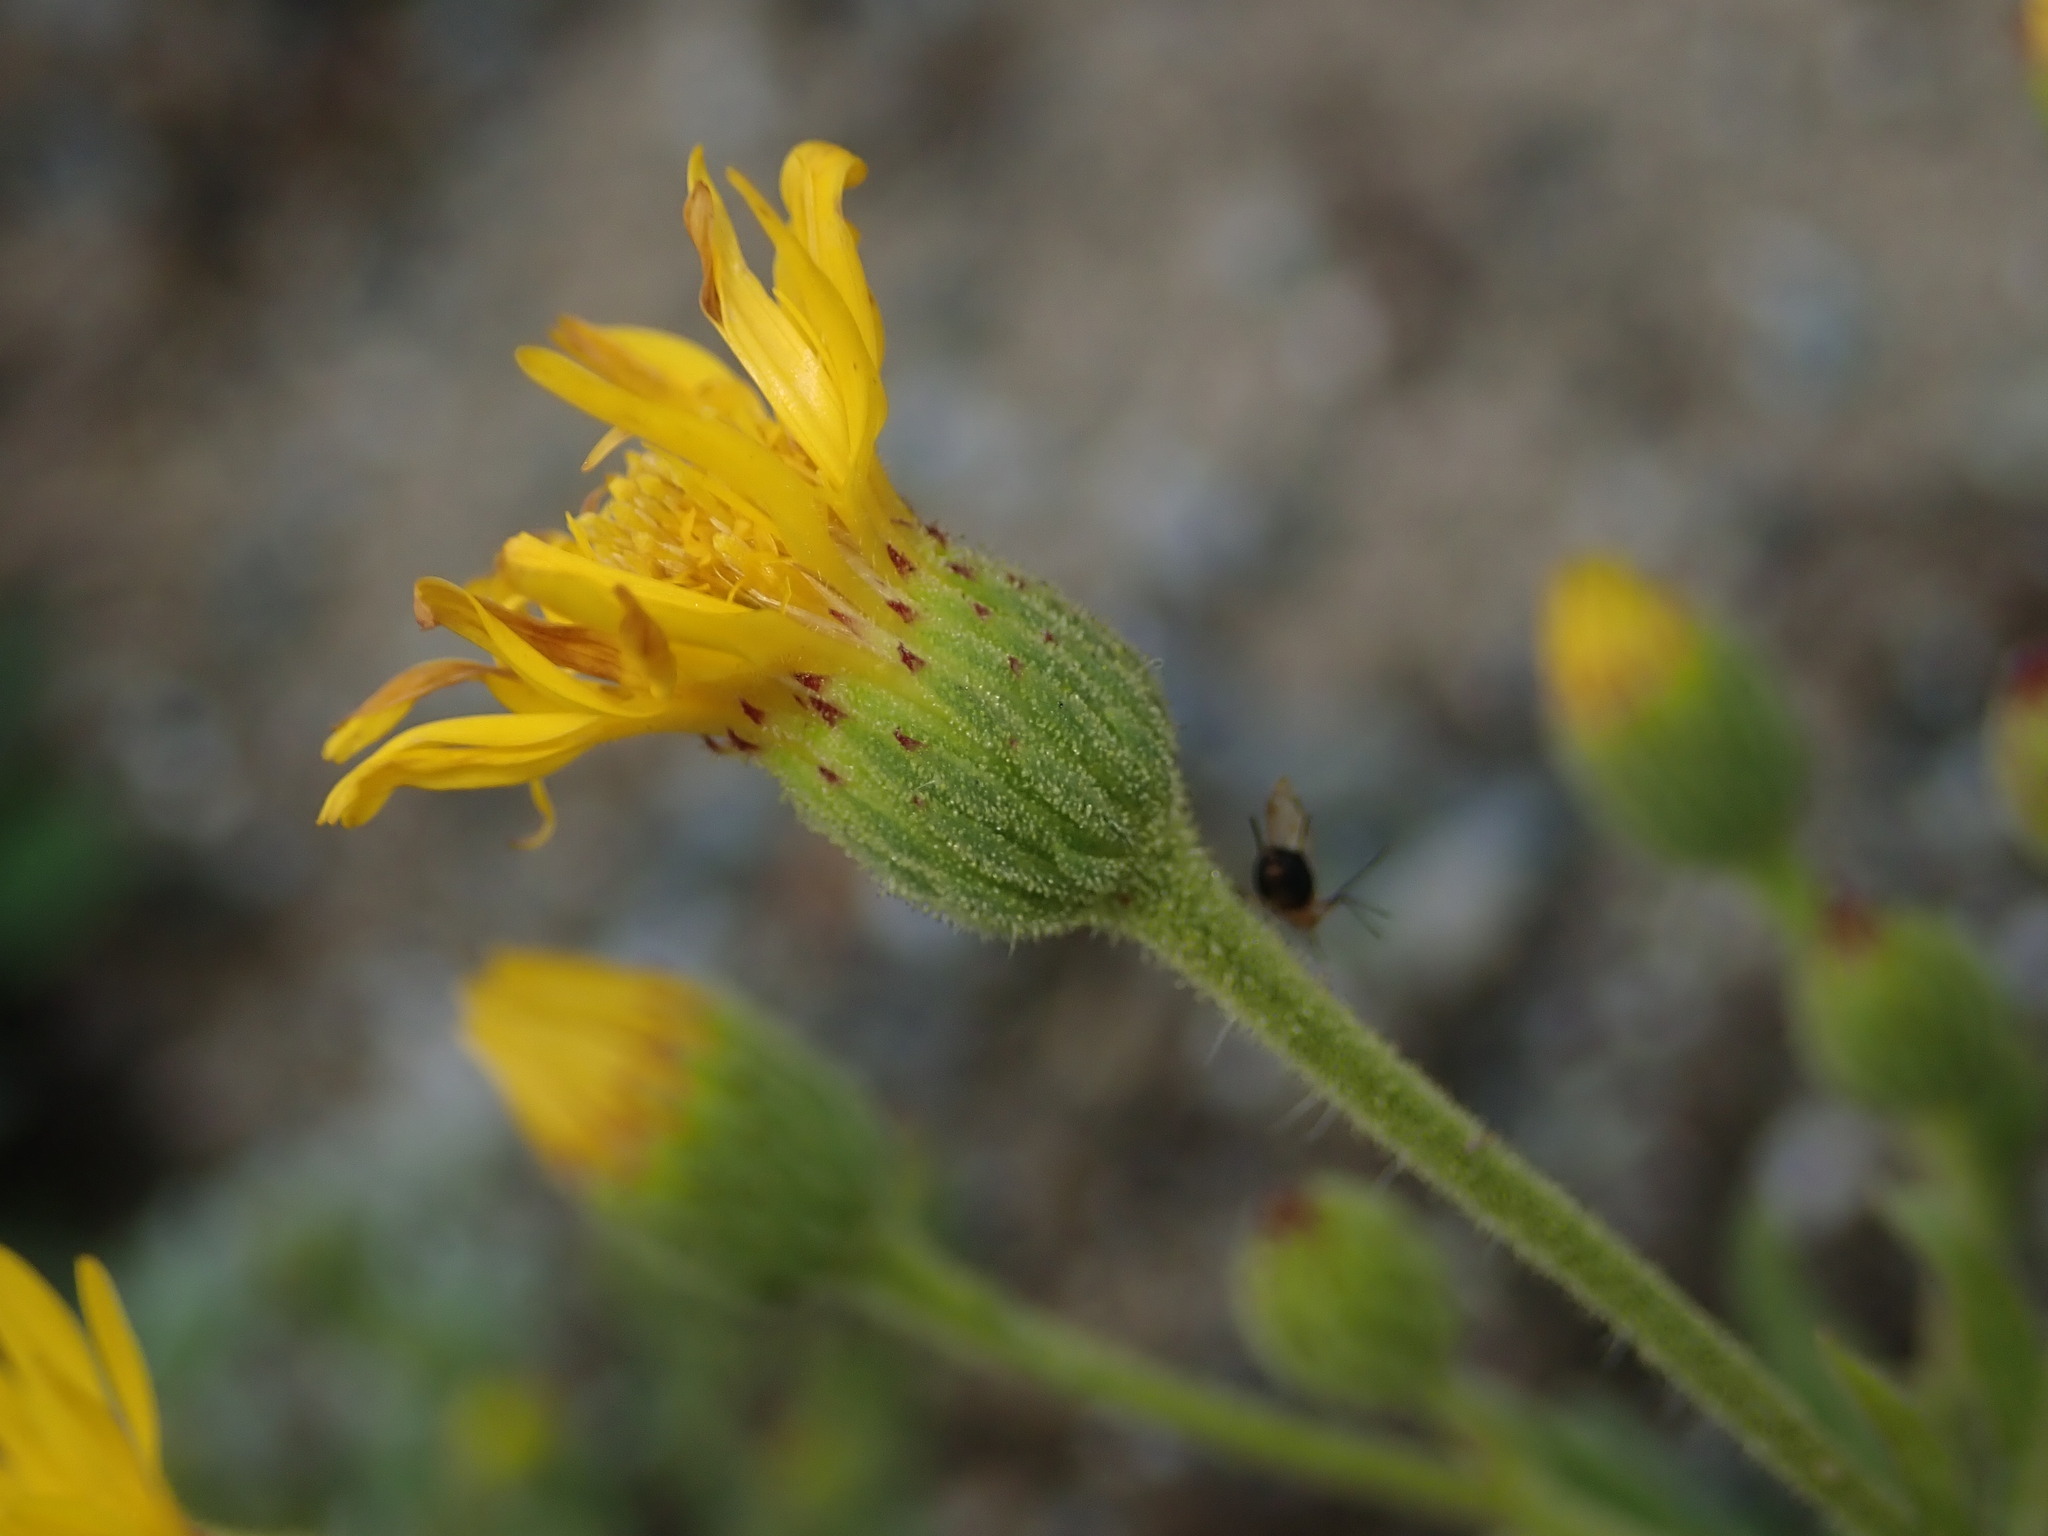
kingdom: Plantae
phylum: Tracheophyta
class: Magnoliopsida
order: Asterales
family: Asteraceae
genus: Heterotheca
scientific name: Heterotheca grandiflora
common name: Telegraphweed
